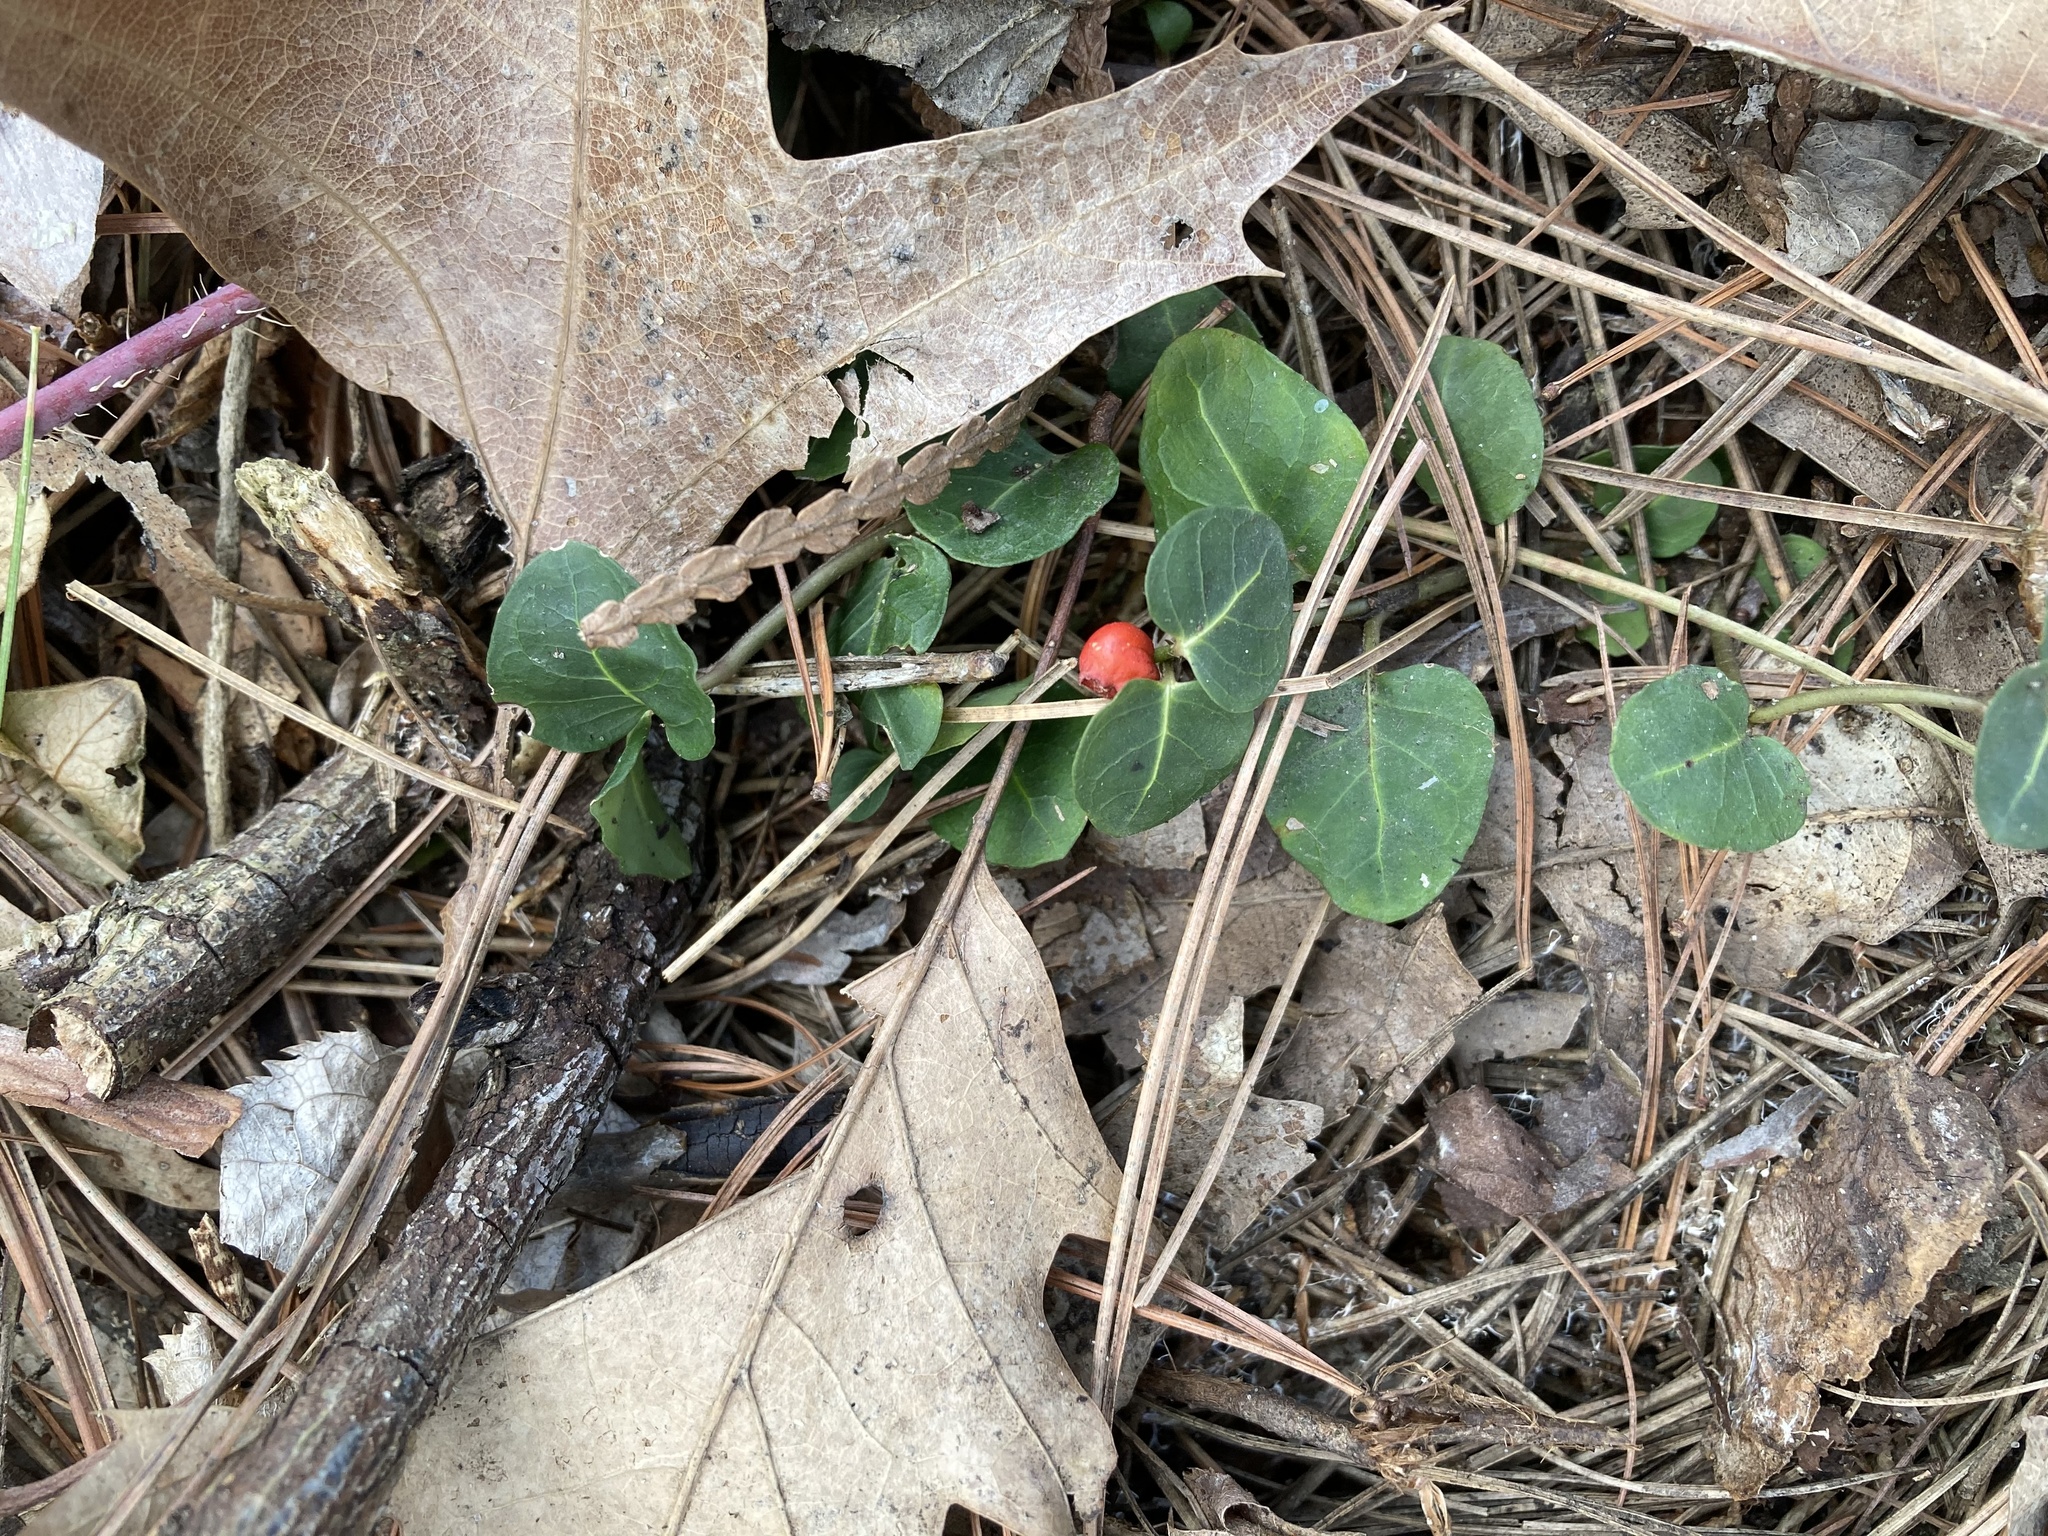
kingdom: Plantae
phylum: Tracheophyta
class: Magnoliopsida
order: Gentianales
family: Rubiaceae
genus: Mitchella
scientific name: Mitchella repens
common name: Partridge-berry
